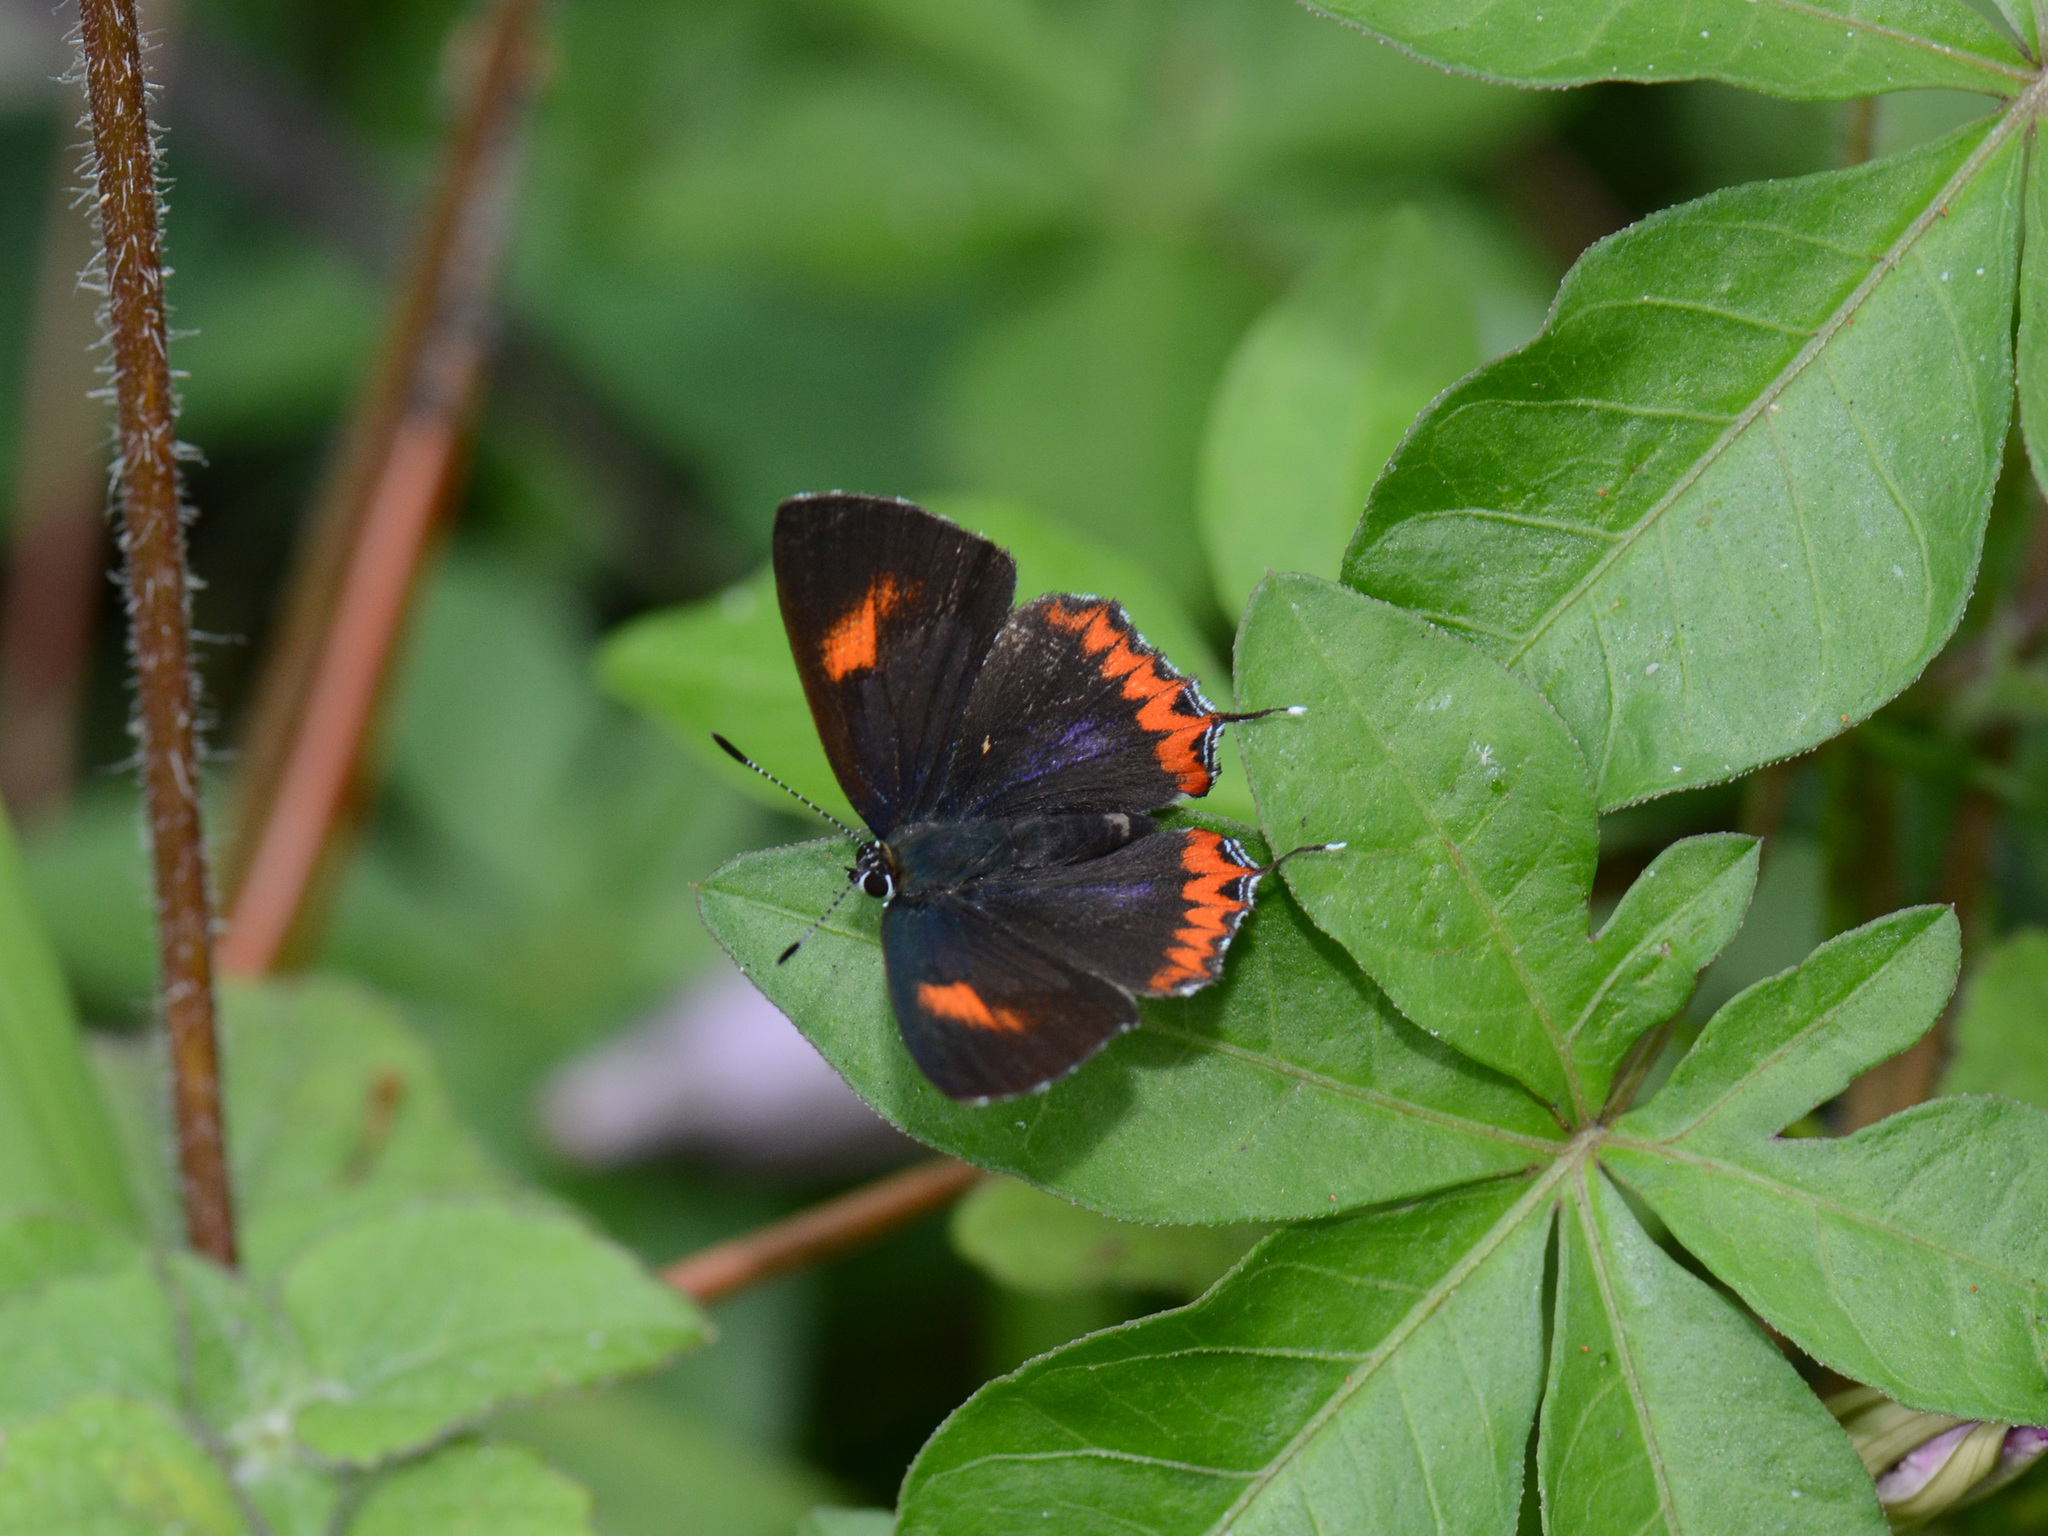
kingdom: Animalia
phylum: Arthropoda
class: Insecta
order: Lepidoptera
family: Lycaenidae
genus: Heliophorus
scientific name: Heliophorus epicles
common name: Purple sapphire
